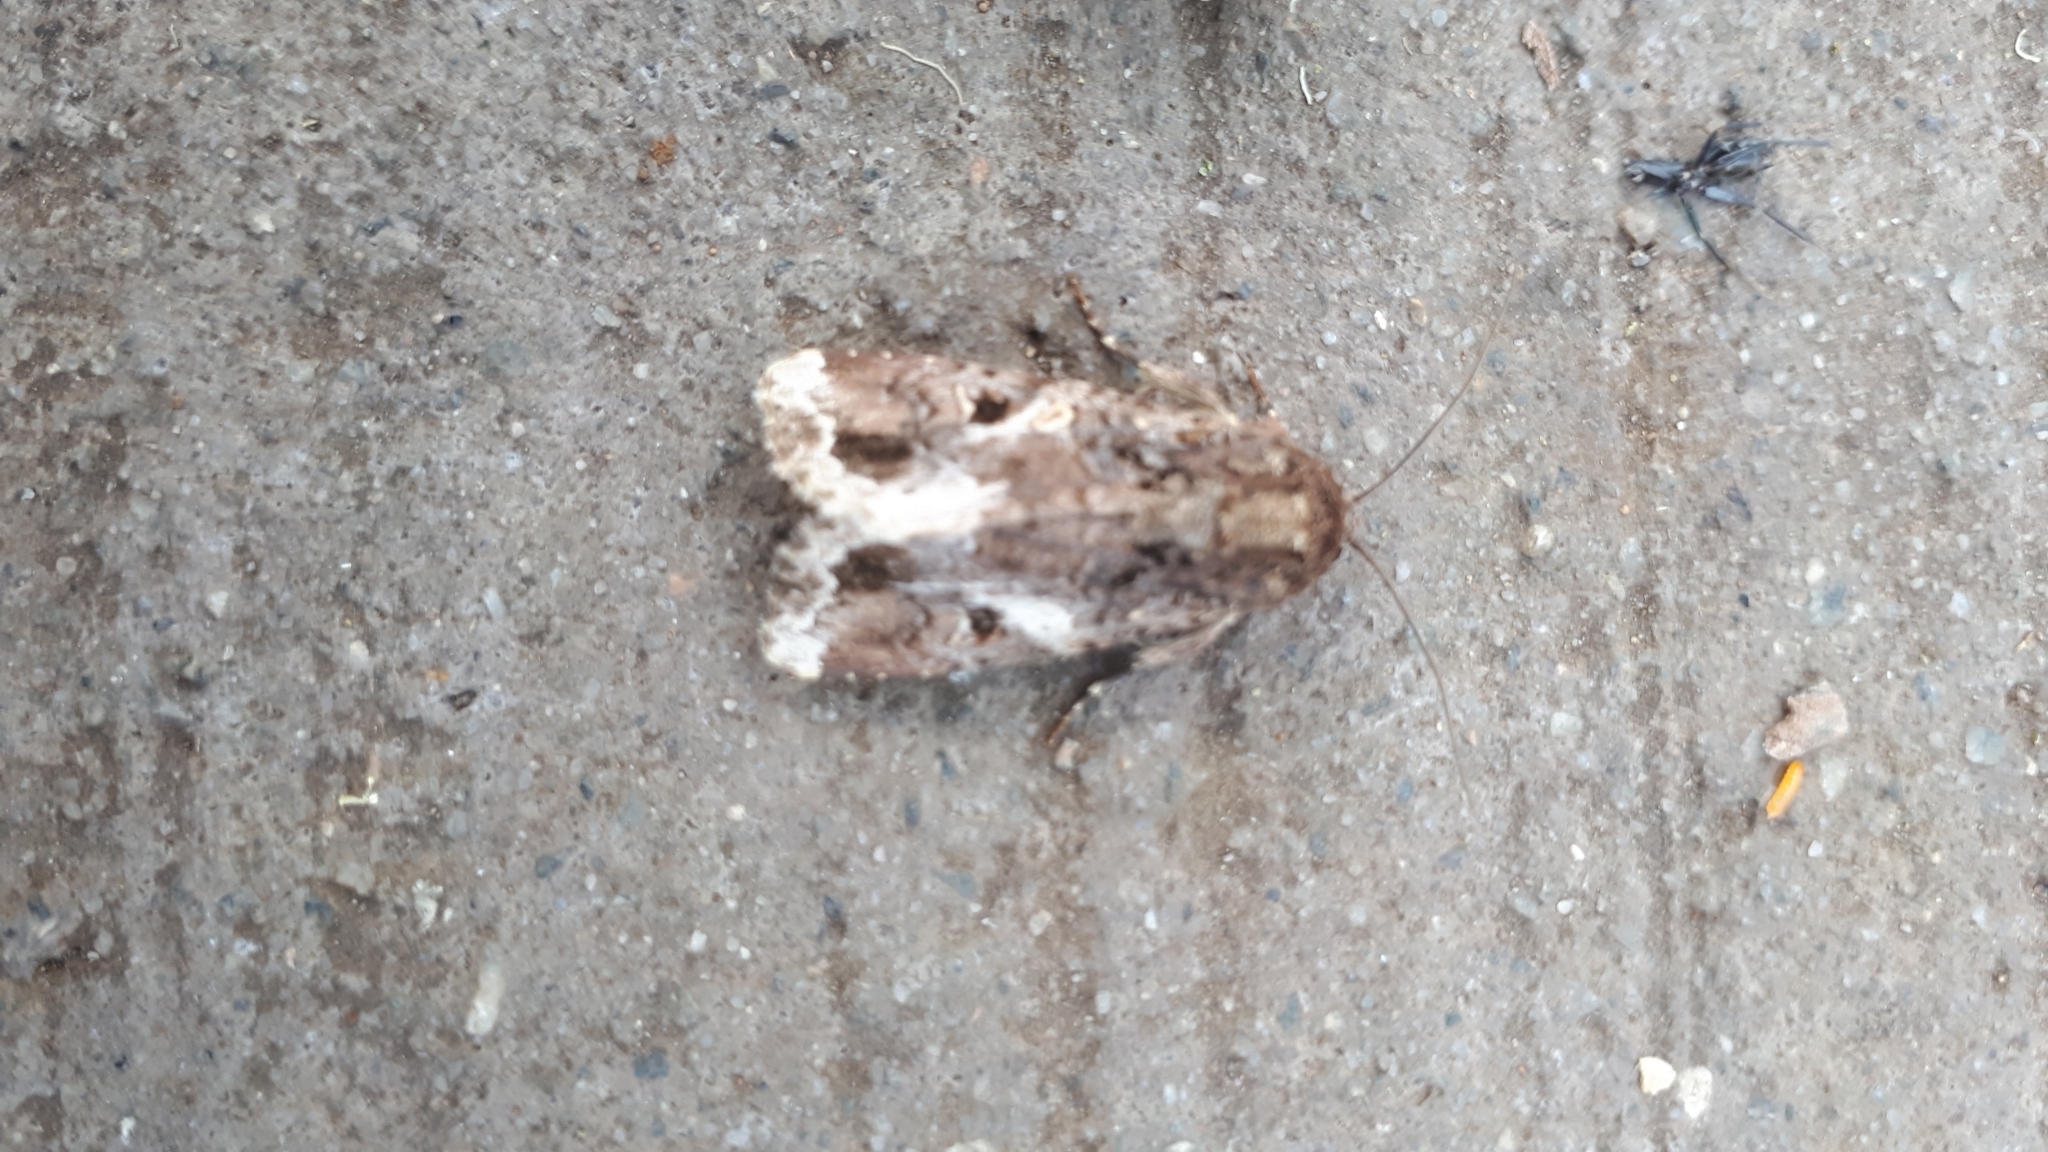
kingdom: Animalia
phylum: Arthropoda
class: Insecta
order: Lepidoptera
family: Noctuidae
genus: Spodoptera
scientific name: Spodoptera mauritia
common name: Lawn armyworm
